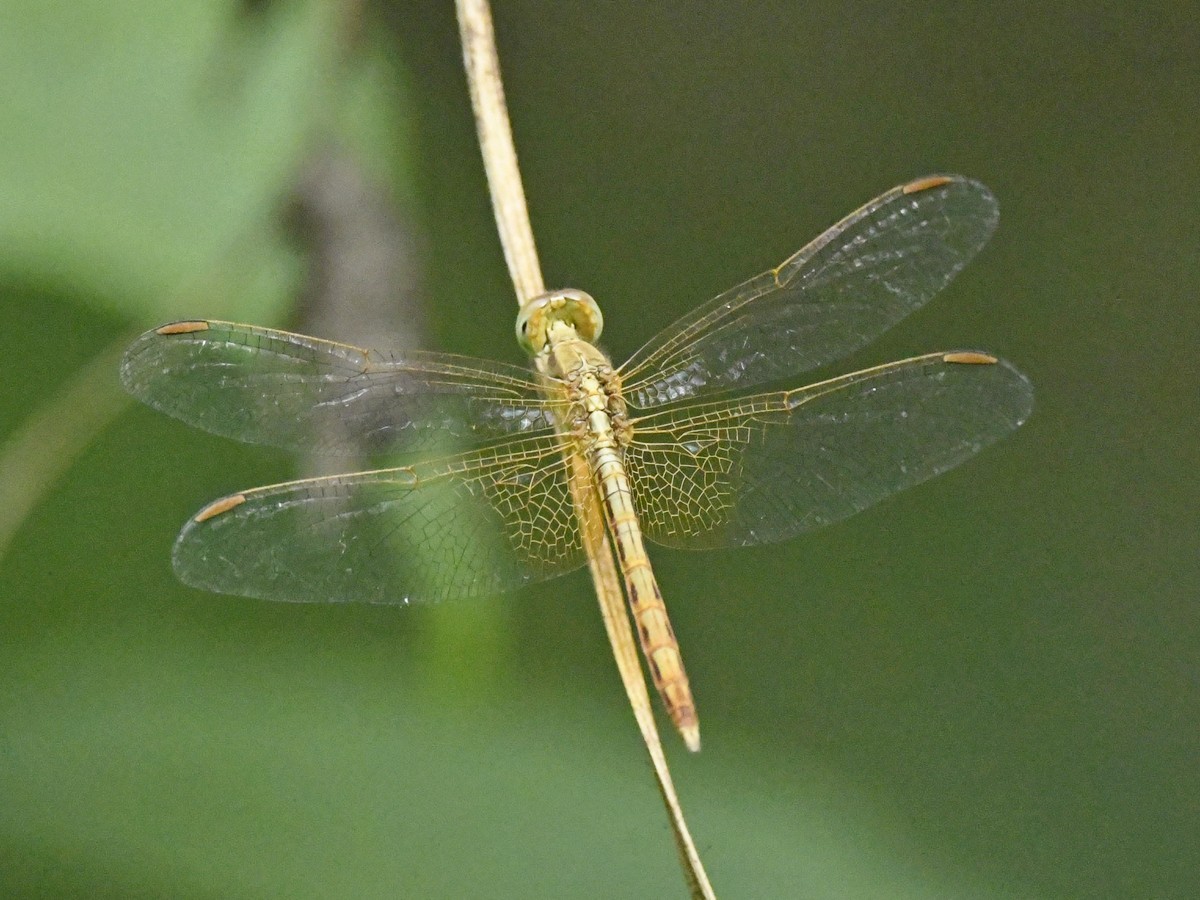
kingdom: Animalia
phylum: Arthropoda
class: Insecta
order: Odonata
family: Libellulidae
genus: Neurothemis
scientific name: Neurothemis intermedia
